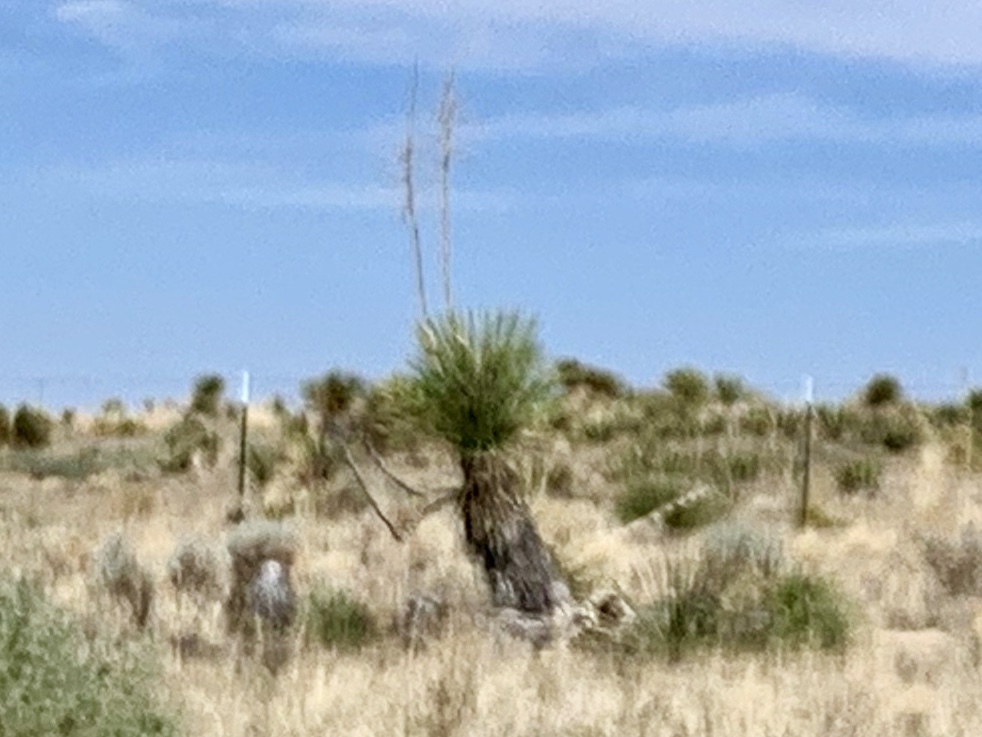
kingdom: Plantae
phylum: Tracheophyta
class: Liliopsida
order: Asparagales
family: Asparagaceae
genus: Yucca
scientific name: Yucca elata
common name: Palmella
